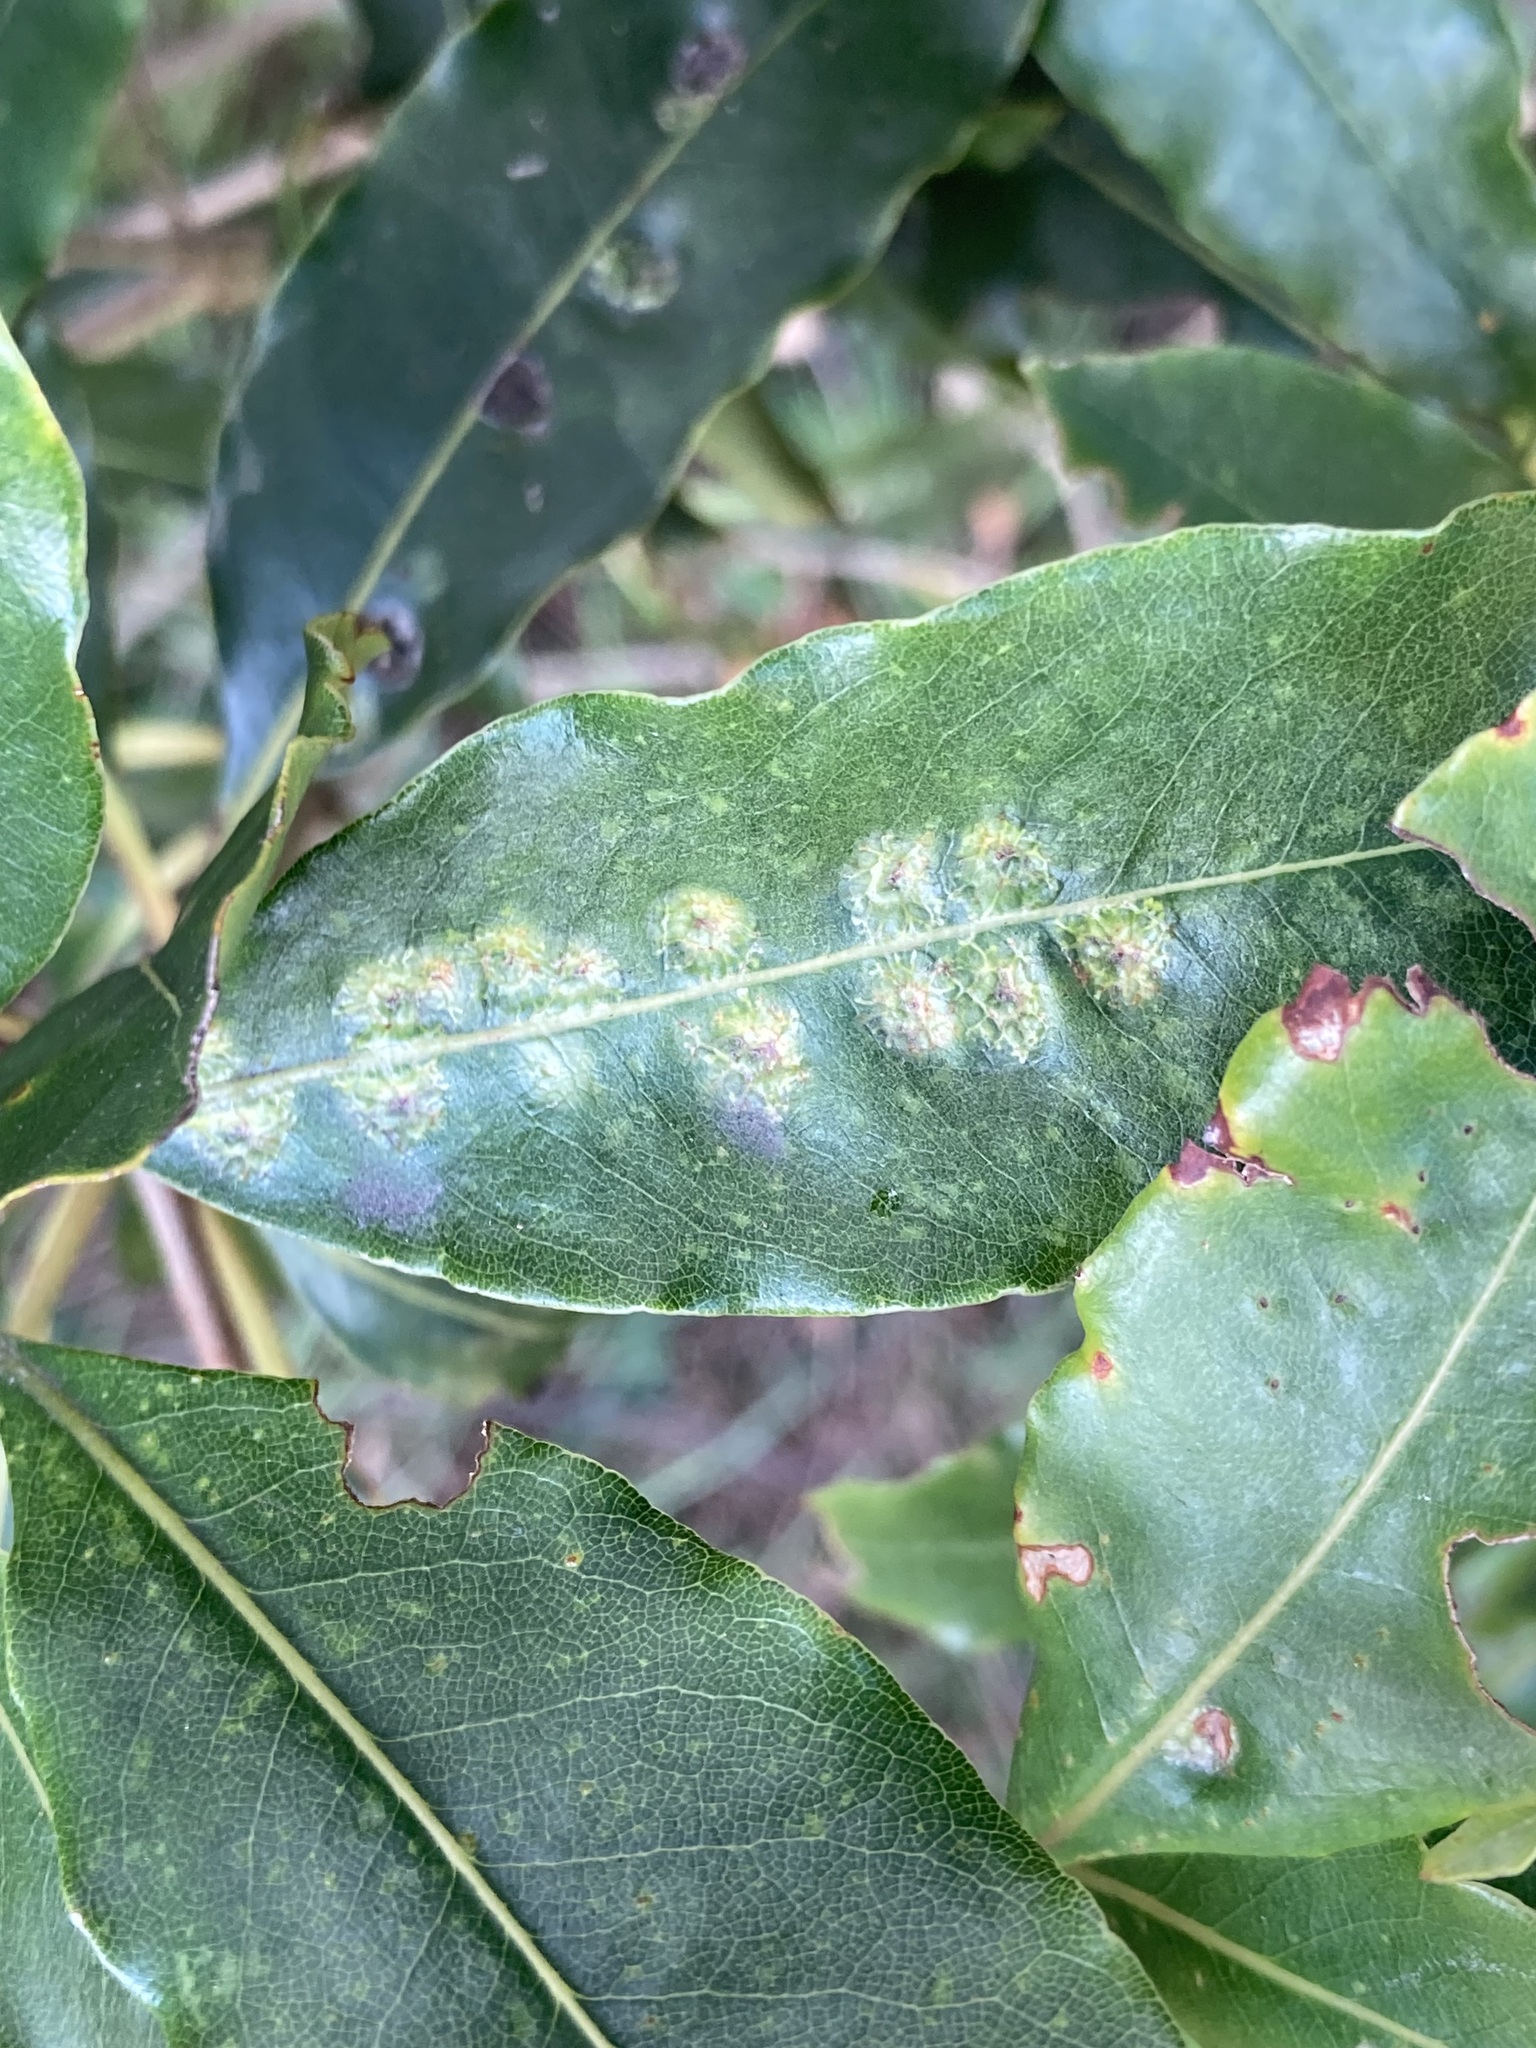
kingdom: Animalia
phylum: Arthropoda
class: Insecta
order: Diptera
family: Agromyzidae
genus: Phytoliriomyza
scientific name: Phytoliriomyza pittosporophylli
